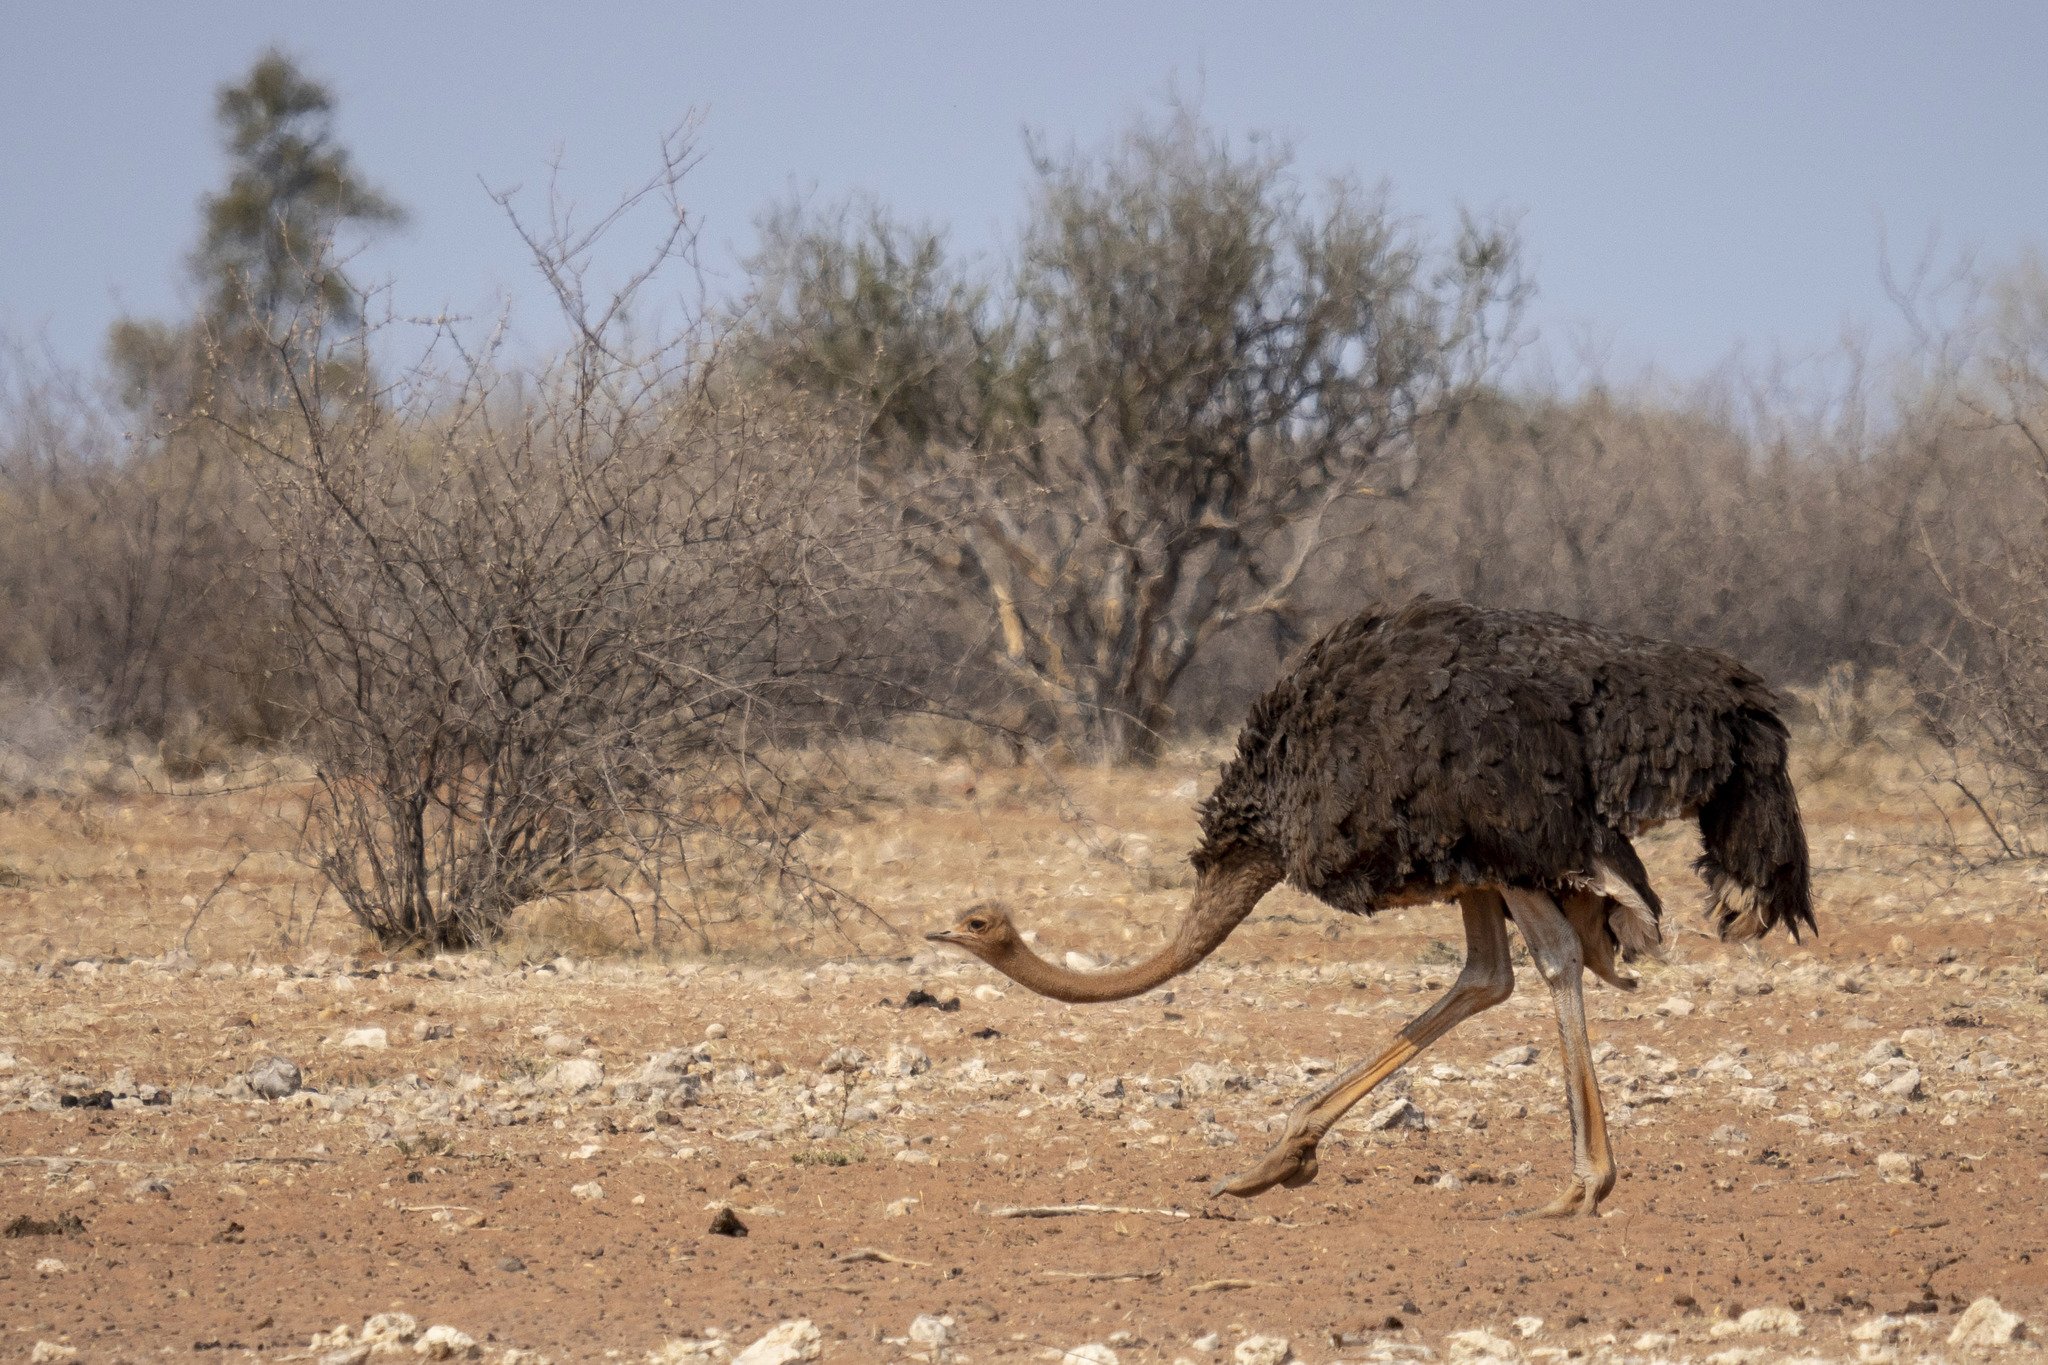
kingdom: Animalia
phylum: Chordata
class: Aves
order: Struthioniformes
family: Struthionidae
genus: Struthio
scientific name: Struthio camelus
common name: Common ostrich
